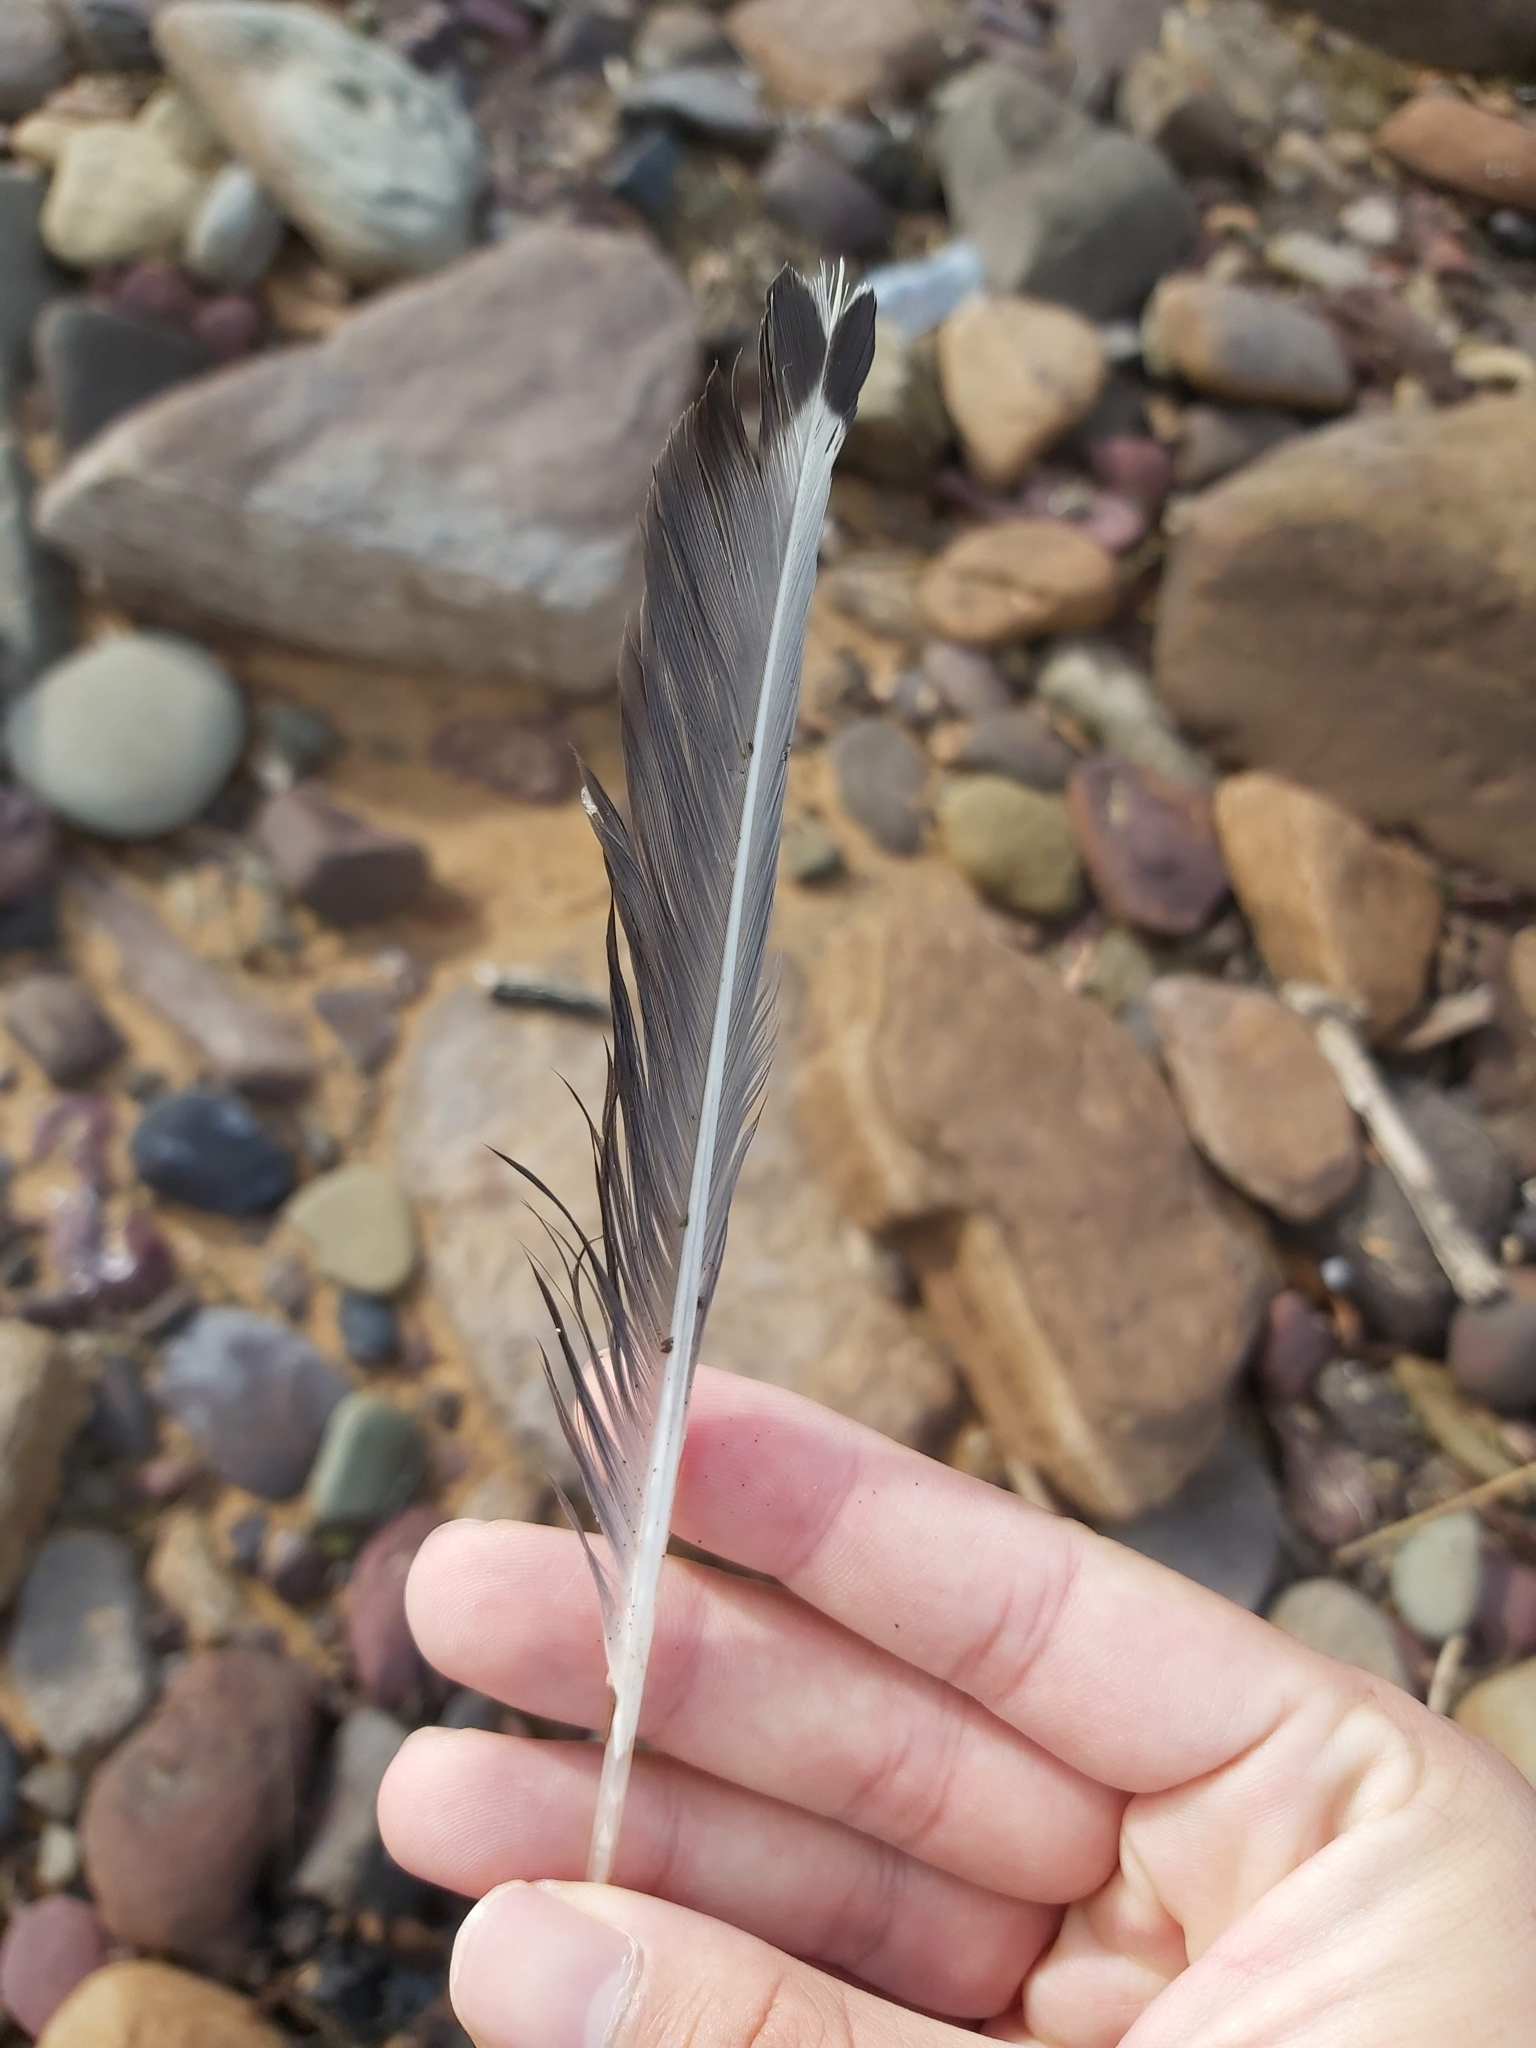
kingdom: Animalia
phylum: Chordata
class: Aves
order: Charadriiformes
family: Laridae
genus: Chroicocephalus
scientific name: Chroicocephalus novaehollandiae
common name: Silver gull
